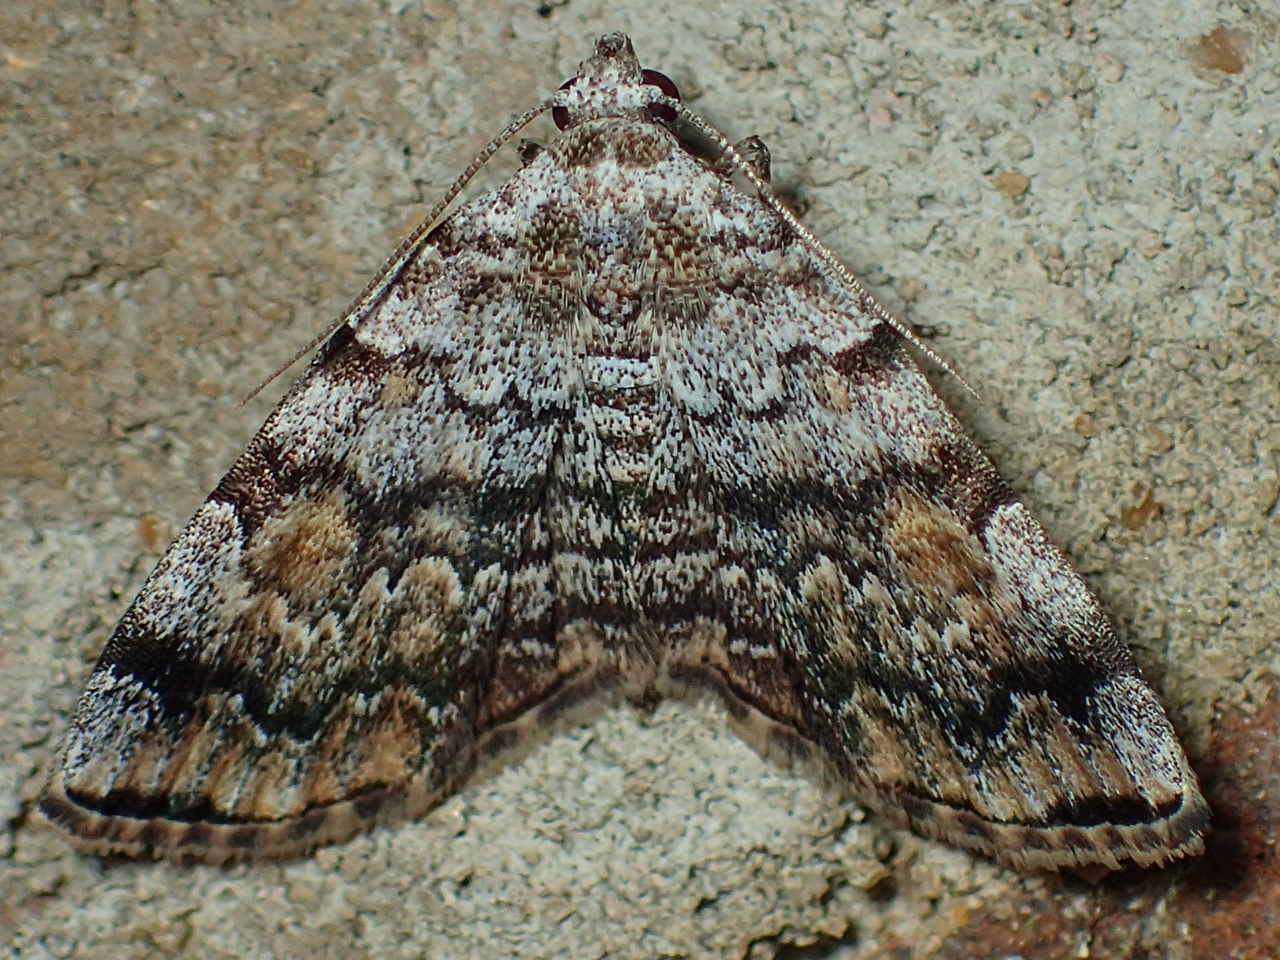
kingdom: Animalia
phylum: Arthropoda
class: Insecta
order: Lepidoptera
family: Erebidae
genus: Idia
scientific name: Idia americalis
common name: American idia moth
